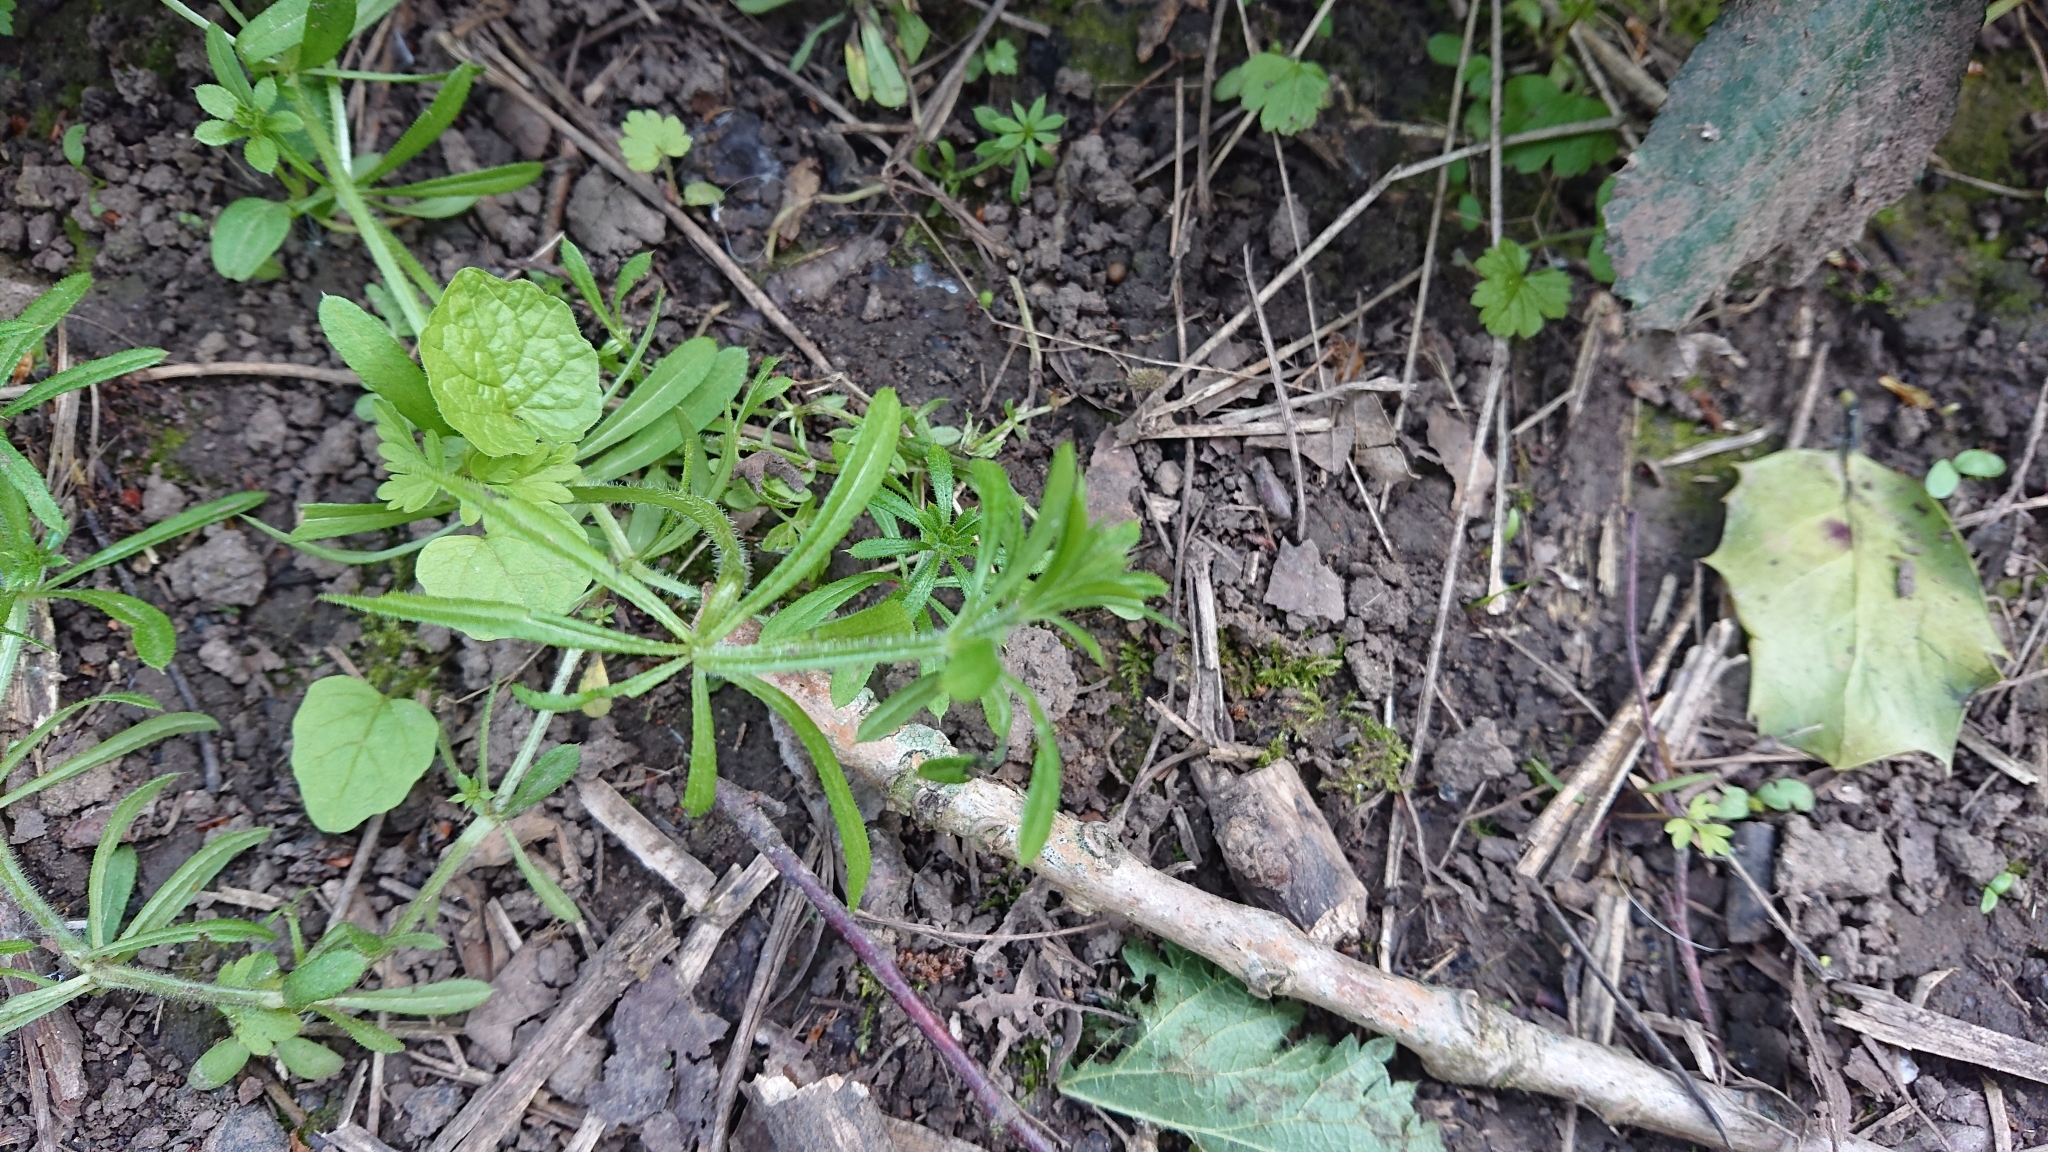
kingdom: Plantae
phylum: Tracheophyta
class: Magnoliopsida
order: Gentianales
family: Rubiaceae
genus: Galium
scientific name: Galium aparine
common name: Cleavers
